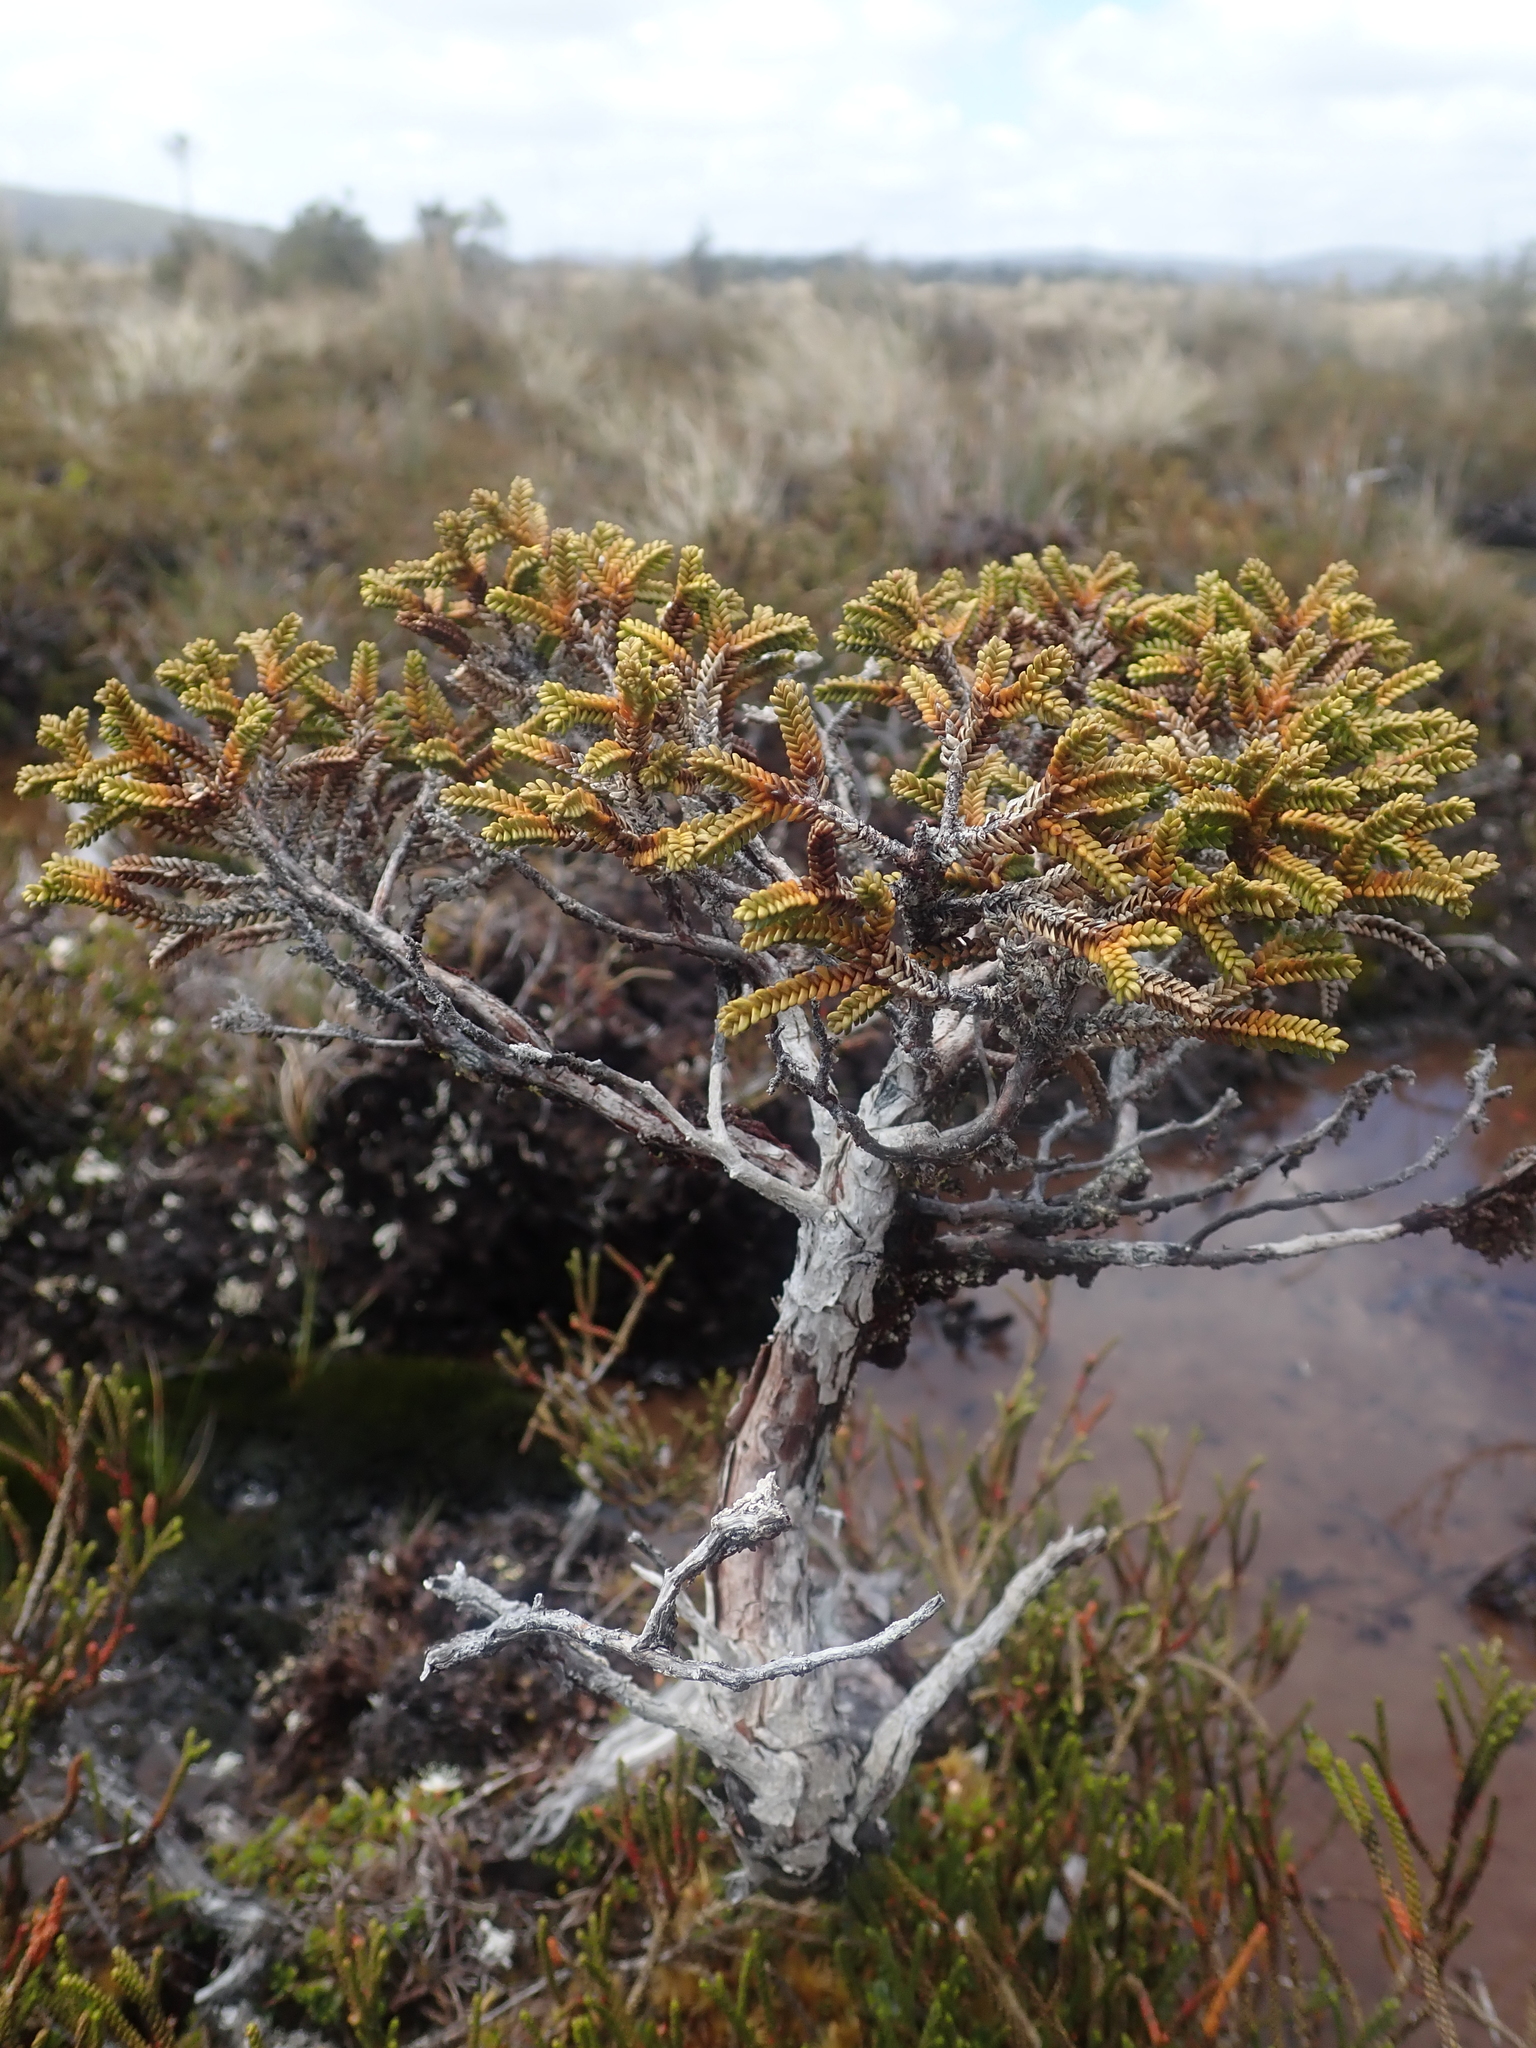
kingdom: Plantae
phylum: Tracheophyta
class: Pinopsida
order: Pinales
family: Cupressaceae
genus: Pilgerodendron
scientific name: Pilgerodendron uviferum
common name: Guaitecas cypress
